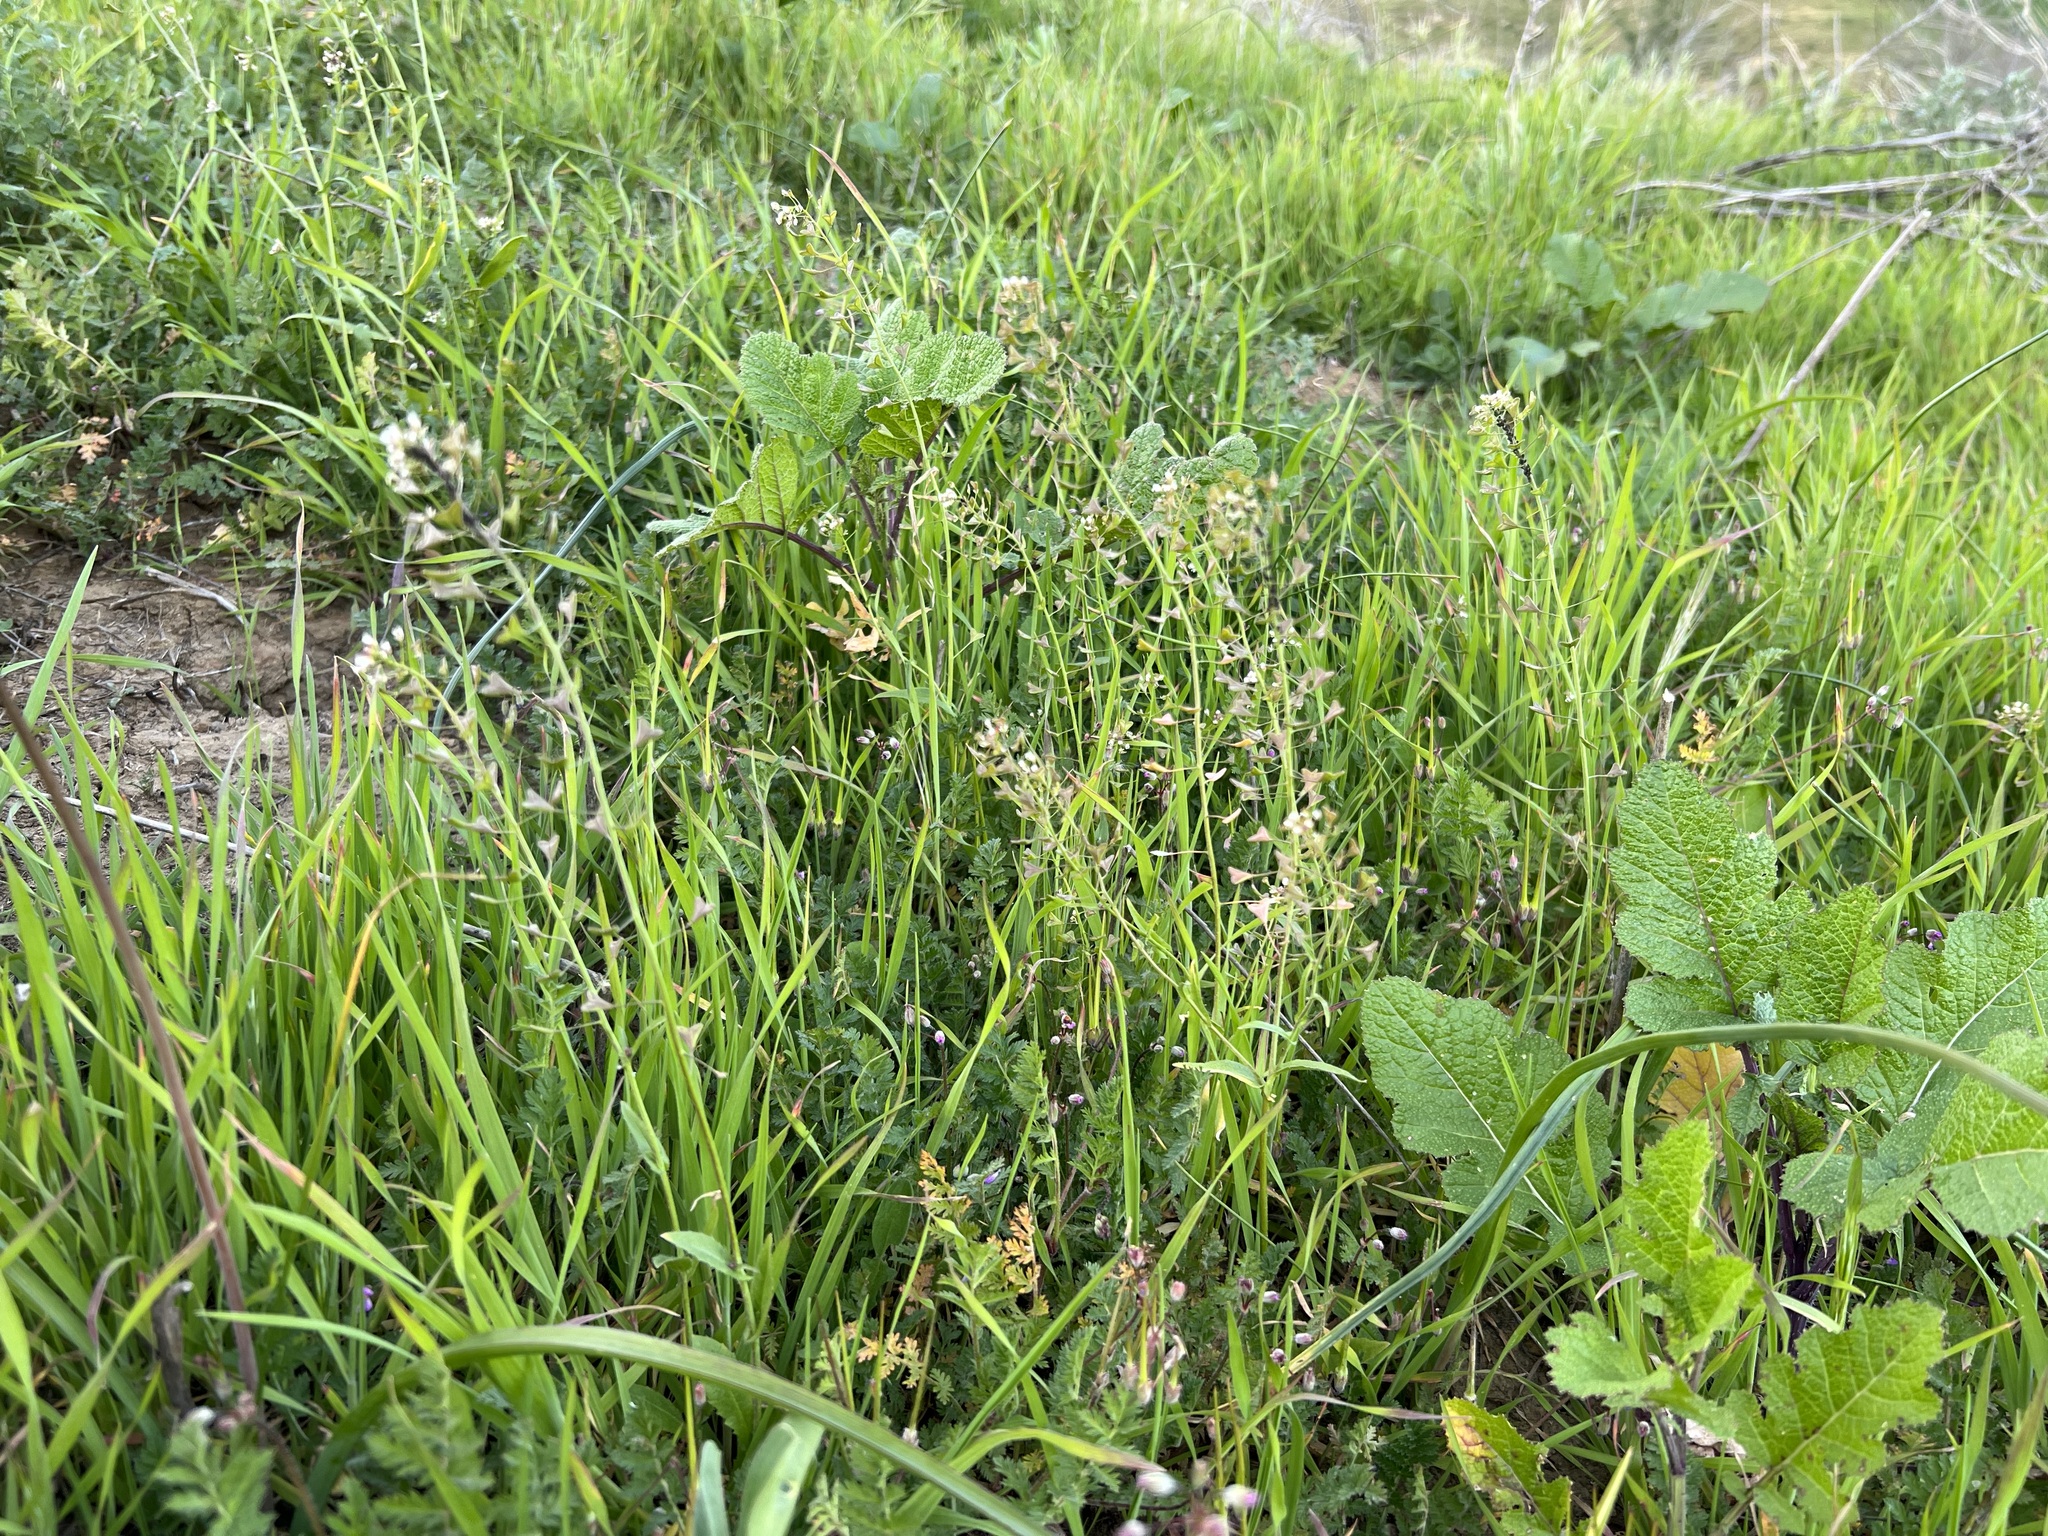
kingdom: Plantae
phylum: Tracheophyta
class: Magnoliopsida
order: Brassicales
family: Brassicaceae
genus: Capsella
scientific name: Capsella bursa-pastoris
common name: Shepherd's purse
